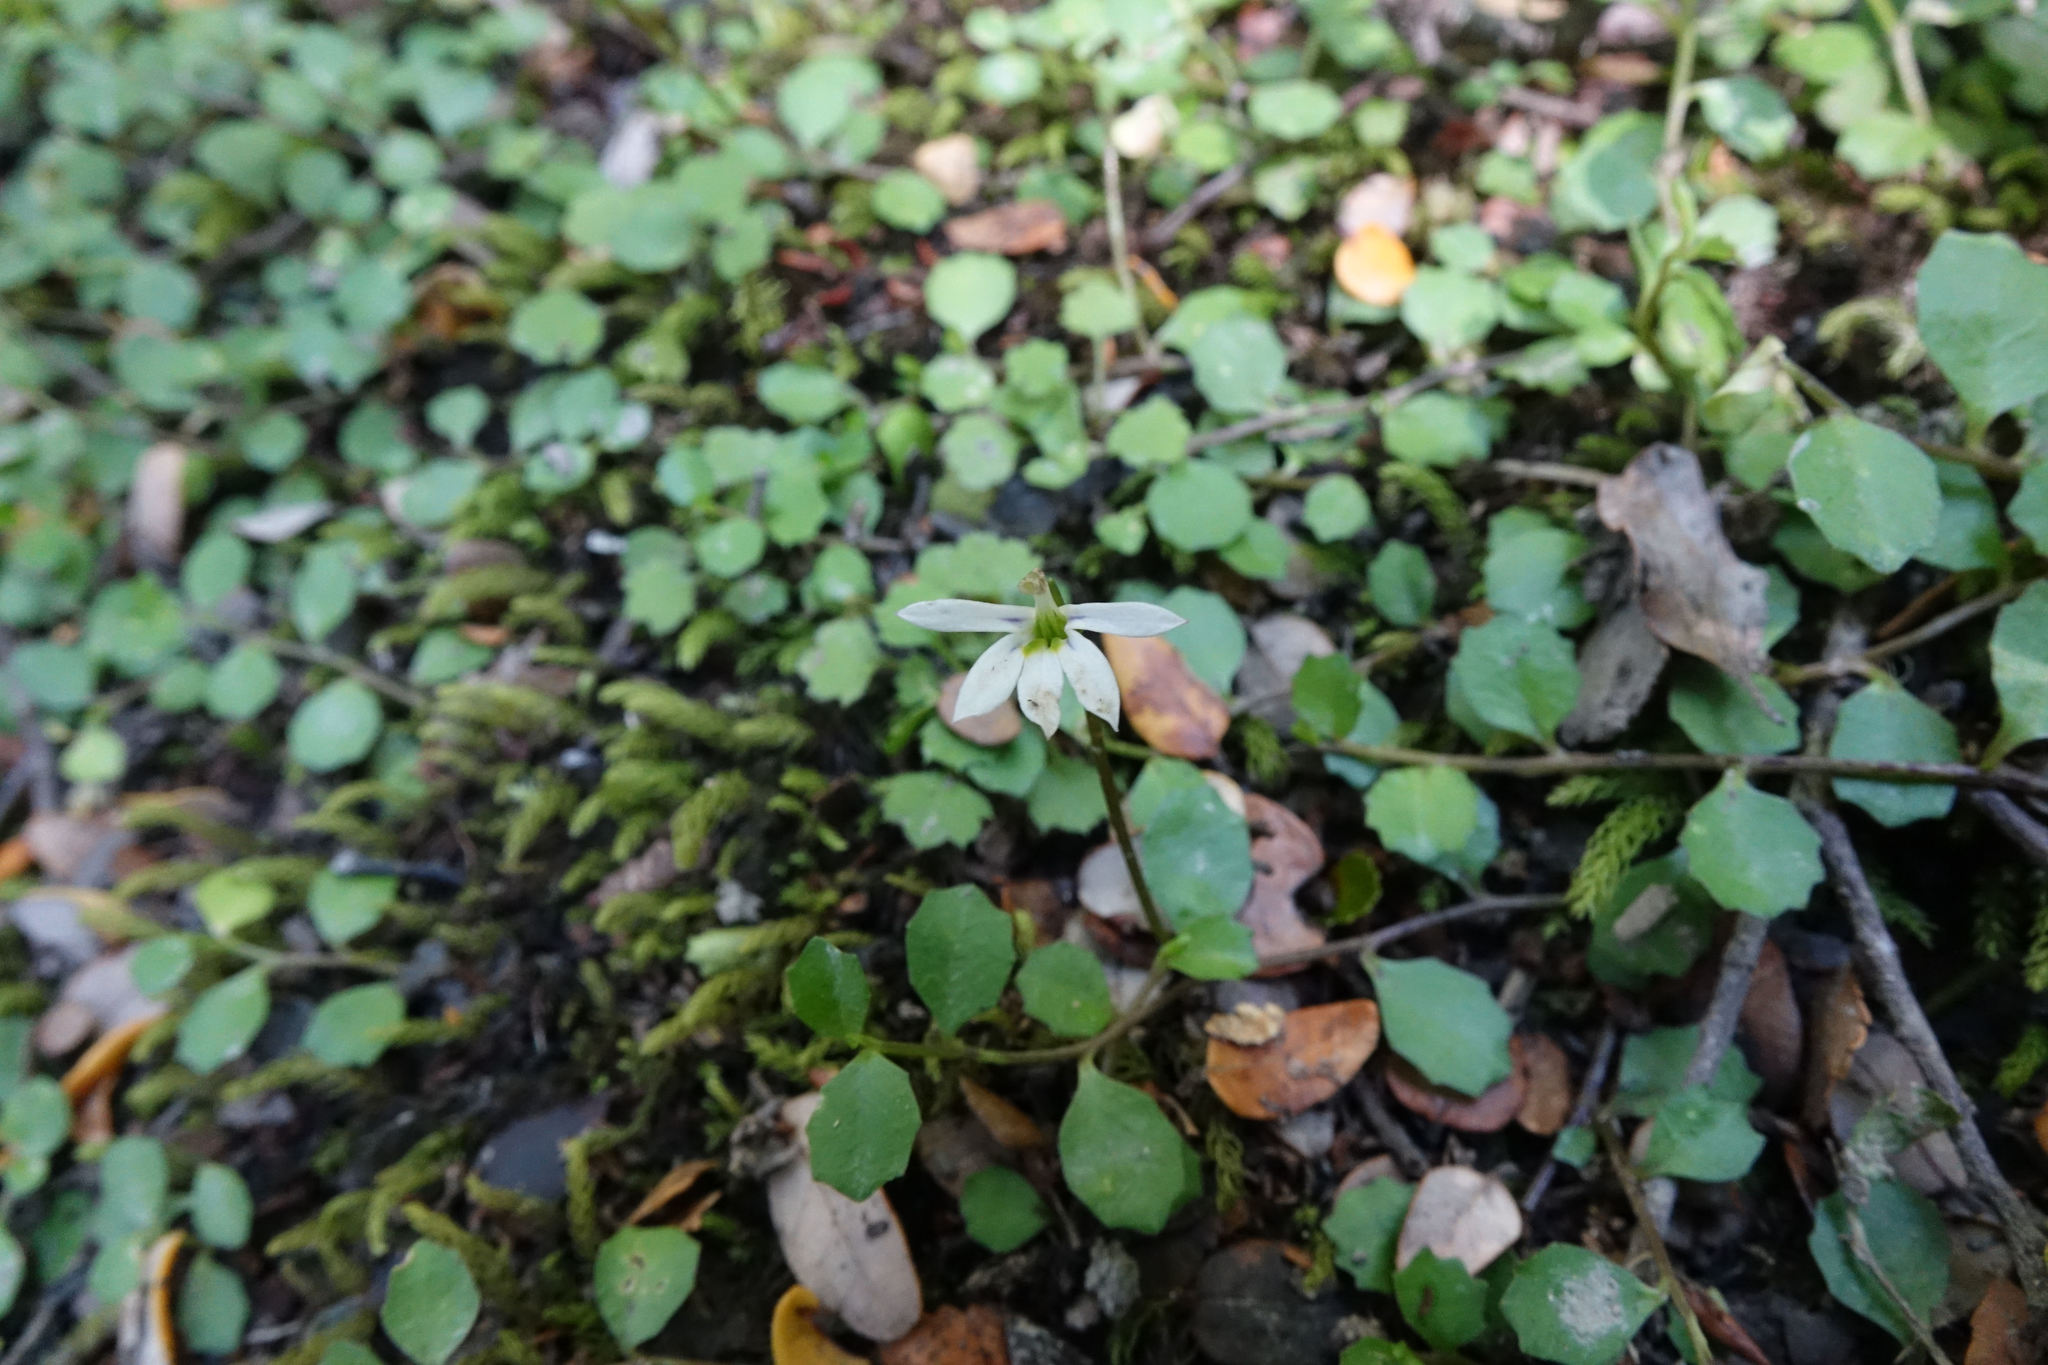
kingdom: Plantae
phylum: Tracheophyta
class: Magnoliopsida
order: Asterales
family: Campanulaceae
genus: Lobelia
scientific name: Lobelia angulata
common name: Lawn lobelia
